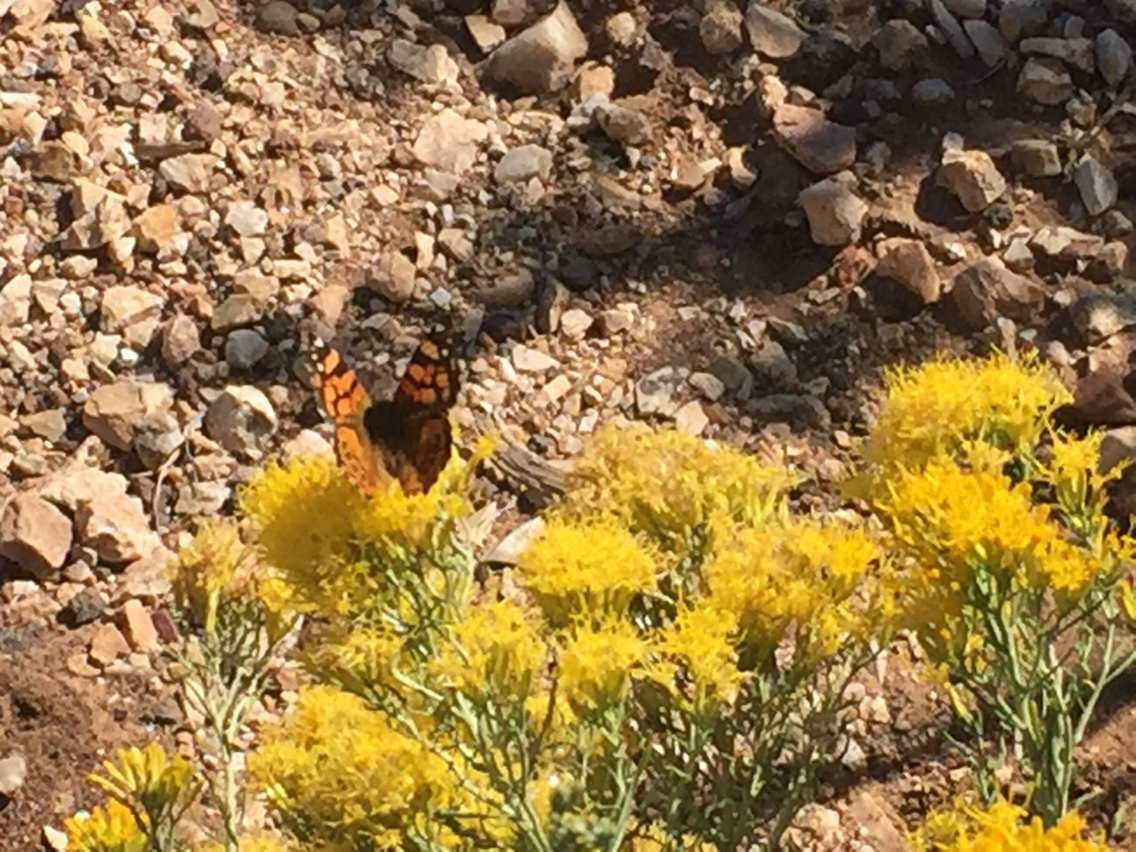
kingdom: Animalia
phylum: Arthropoda
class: Insecta
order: Lepidoptera
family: Nymphalidae
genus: Vanessa
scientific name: Vanessa annabella
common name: West coast lady
